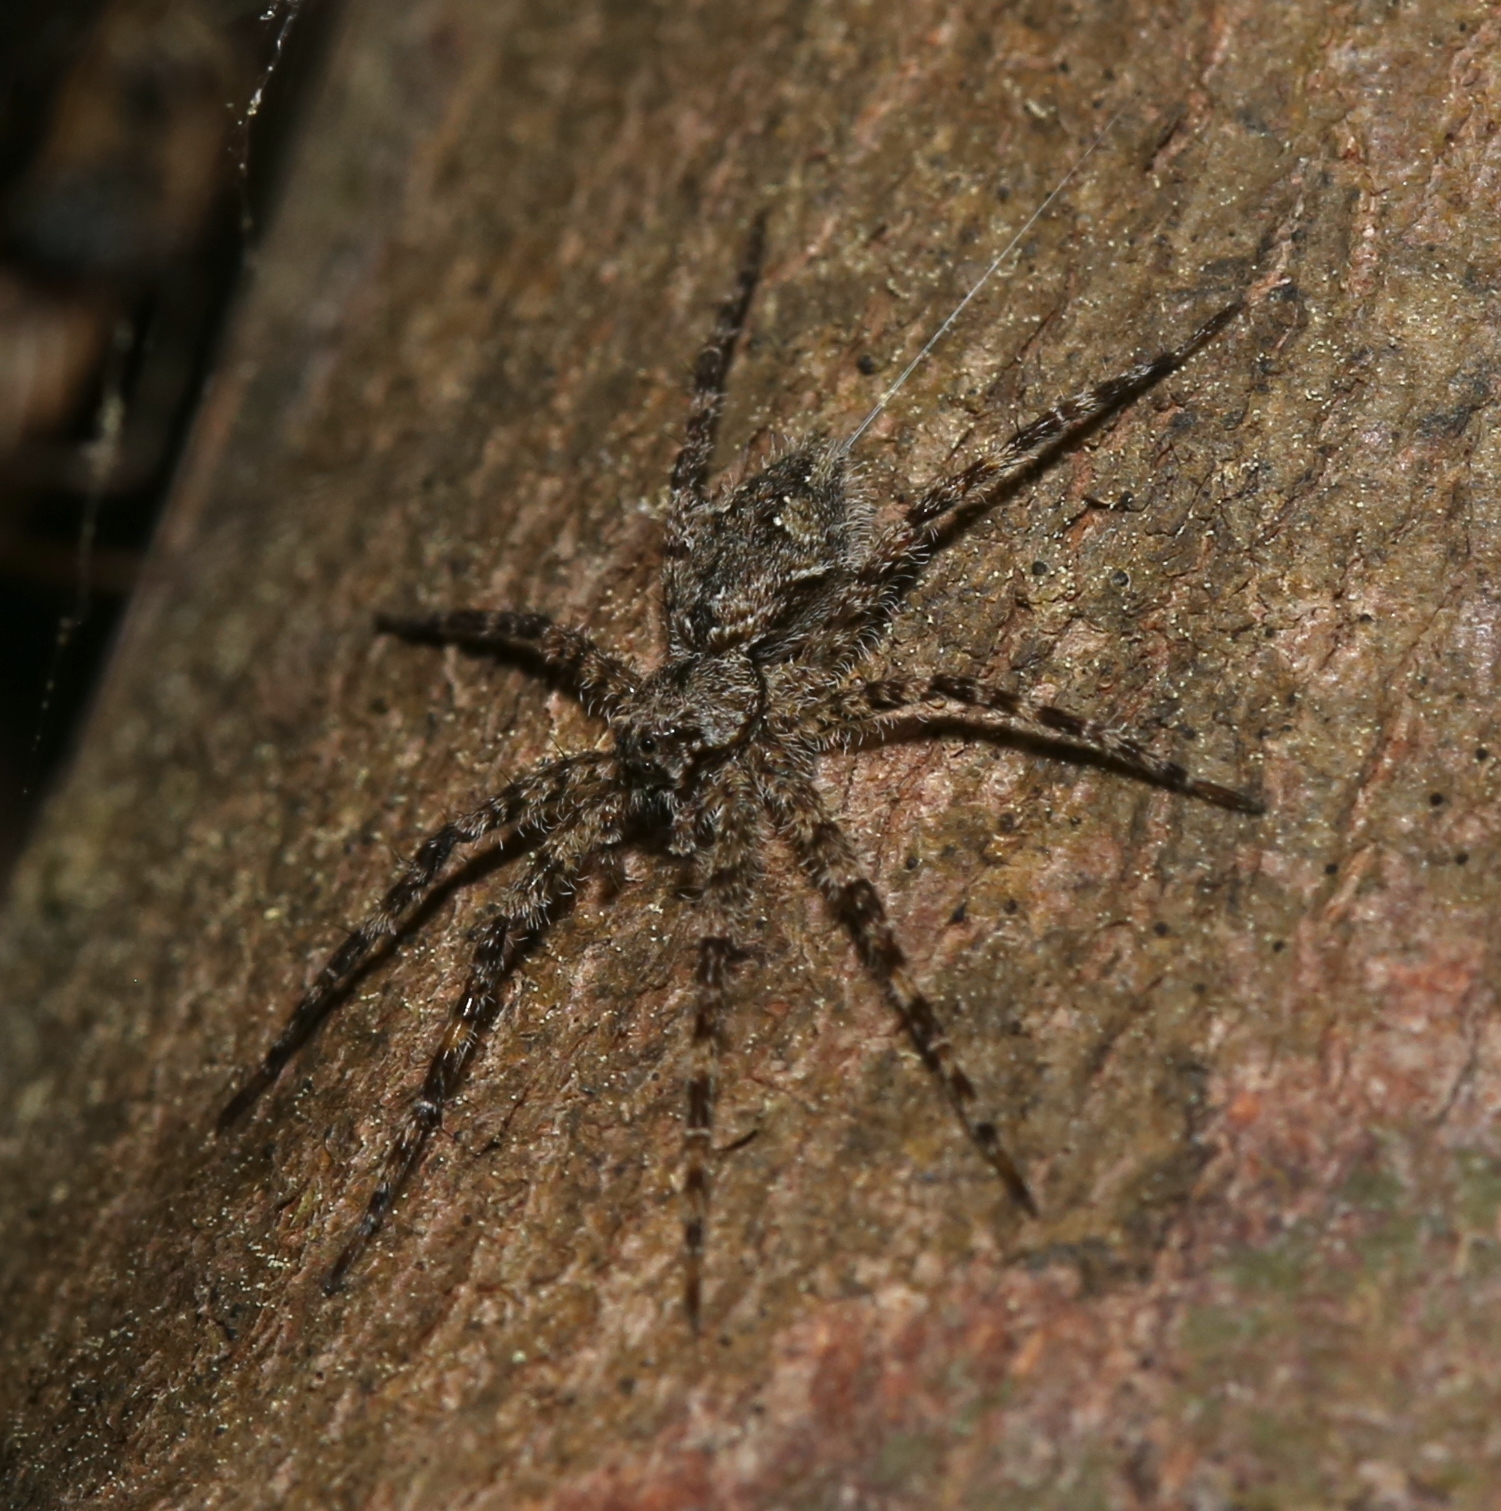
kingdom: Animalia
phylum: Arthropoda
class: Arachnida
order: Araneae
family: Pisauridae
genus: Dolomedes
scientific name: Dolomedes albineus
